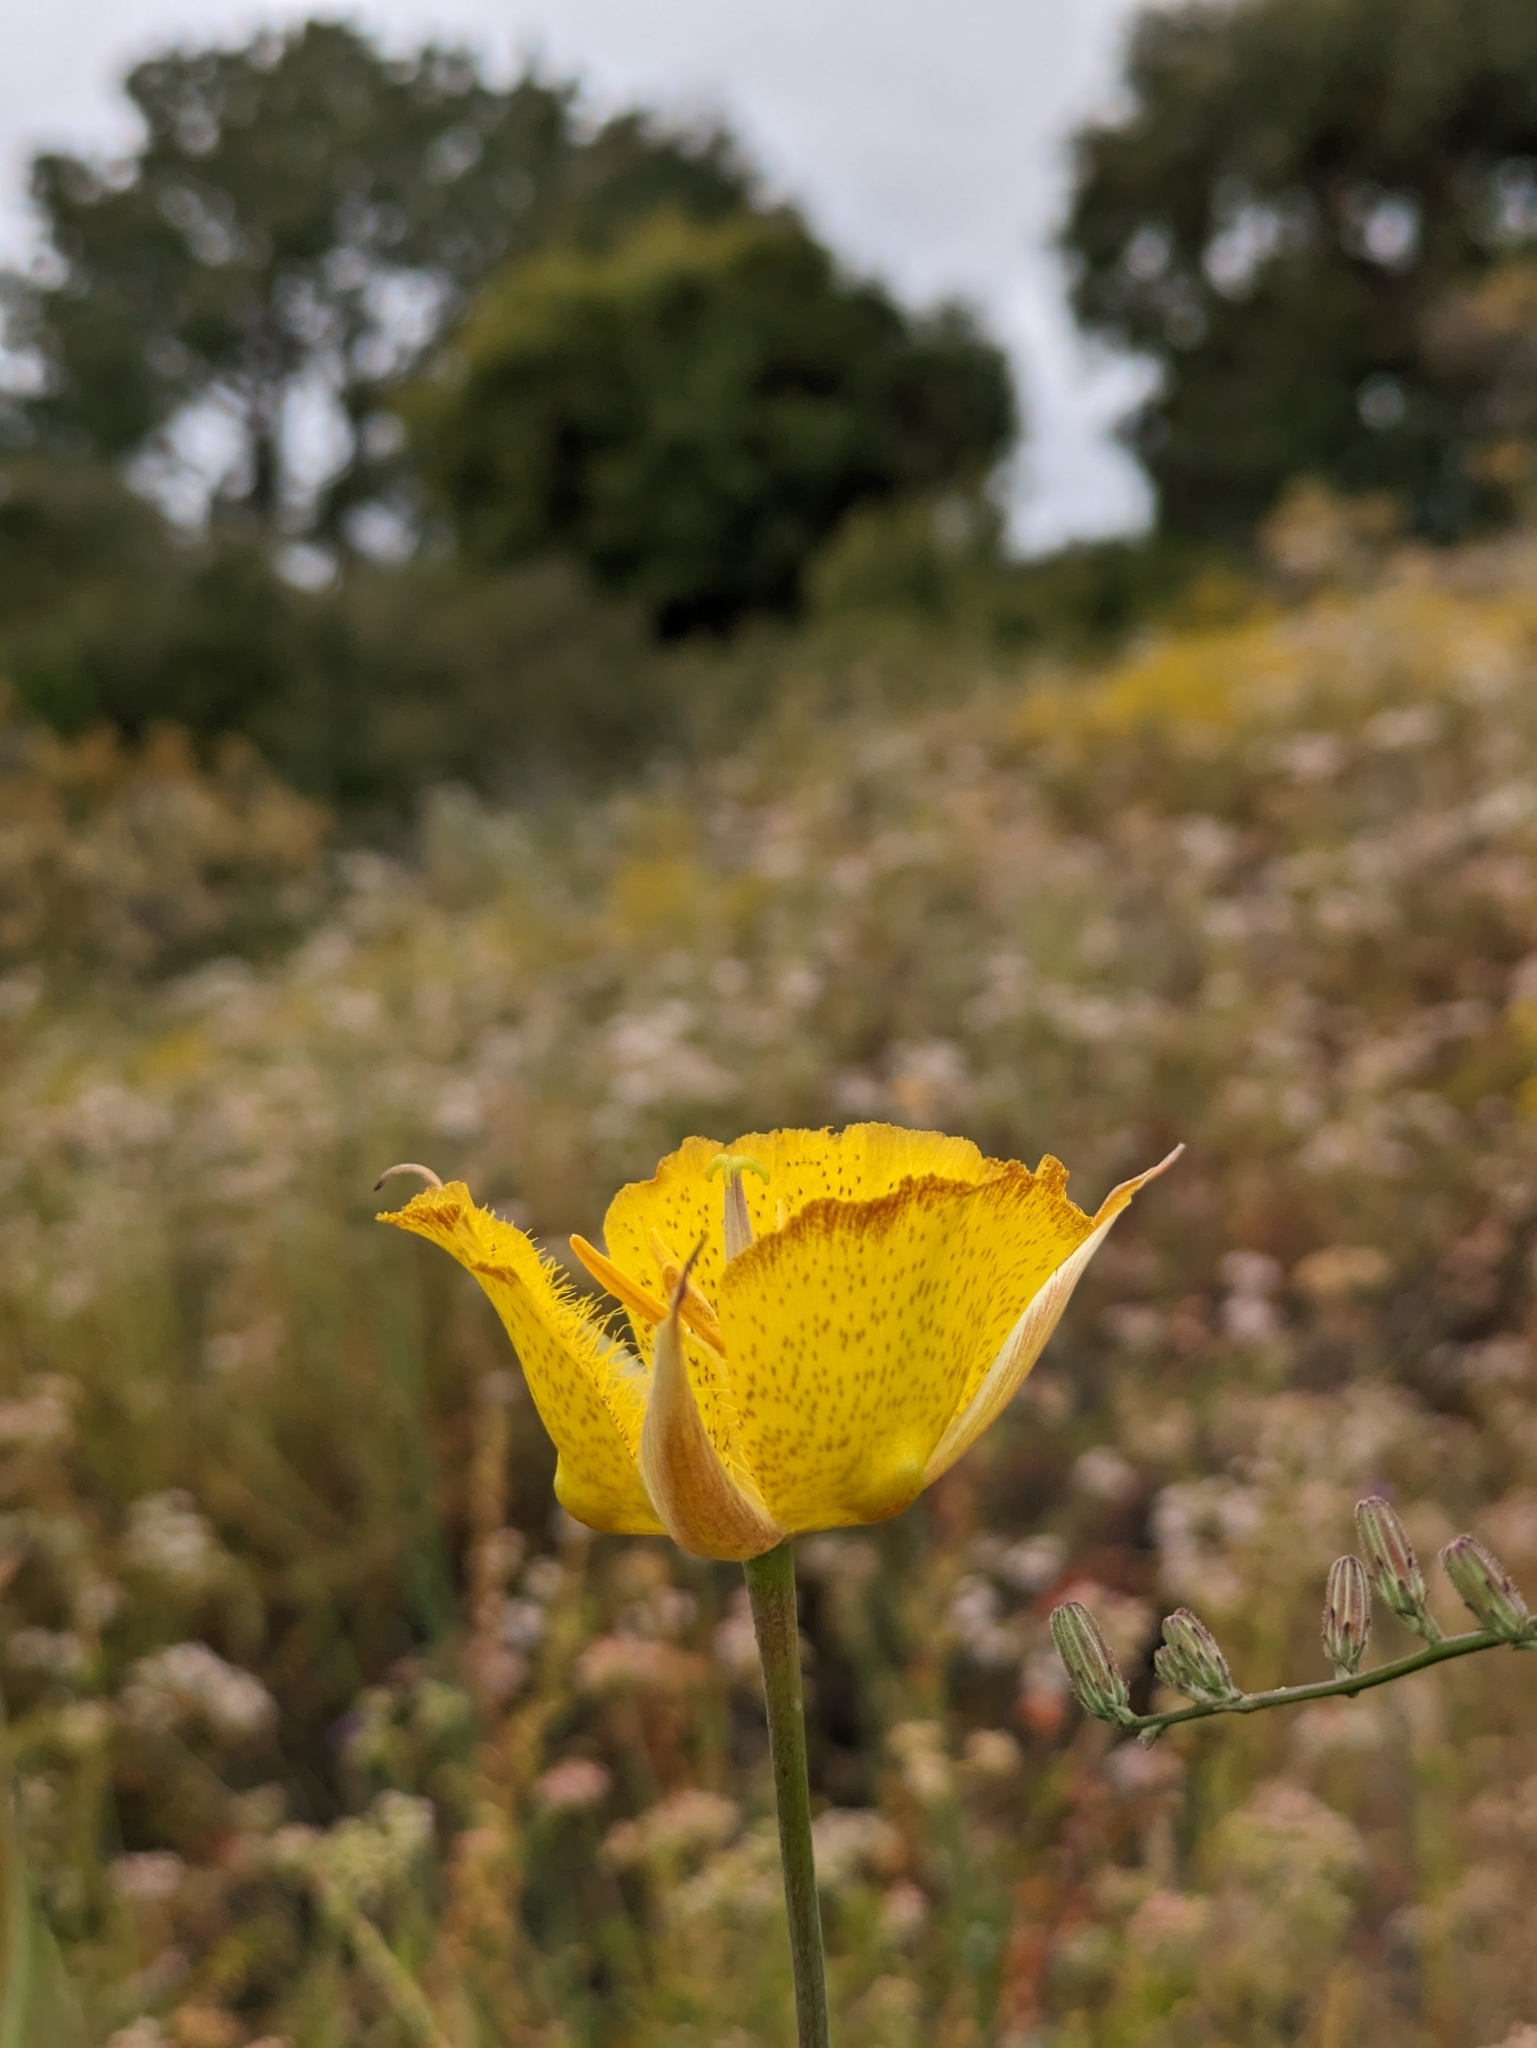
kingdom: Plantae
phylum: Tracheophyta
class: Liliopsida
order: Liliales
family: Liliaceae
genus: Calochortus
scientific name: Calochortus weedii
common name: Weed's mariposa-lily
